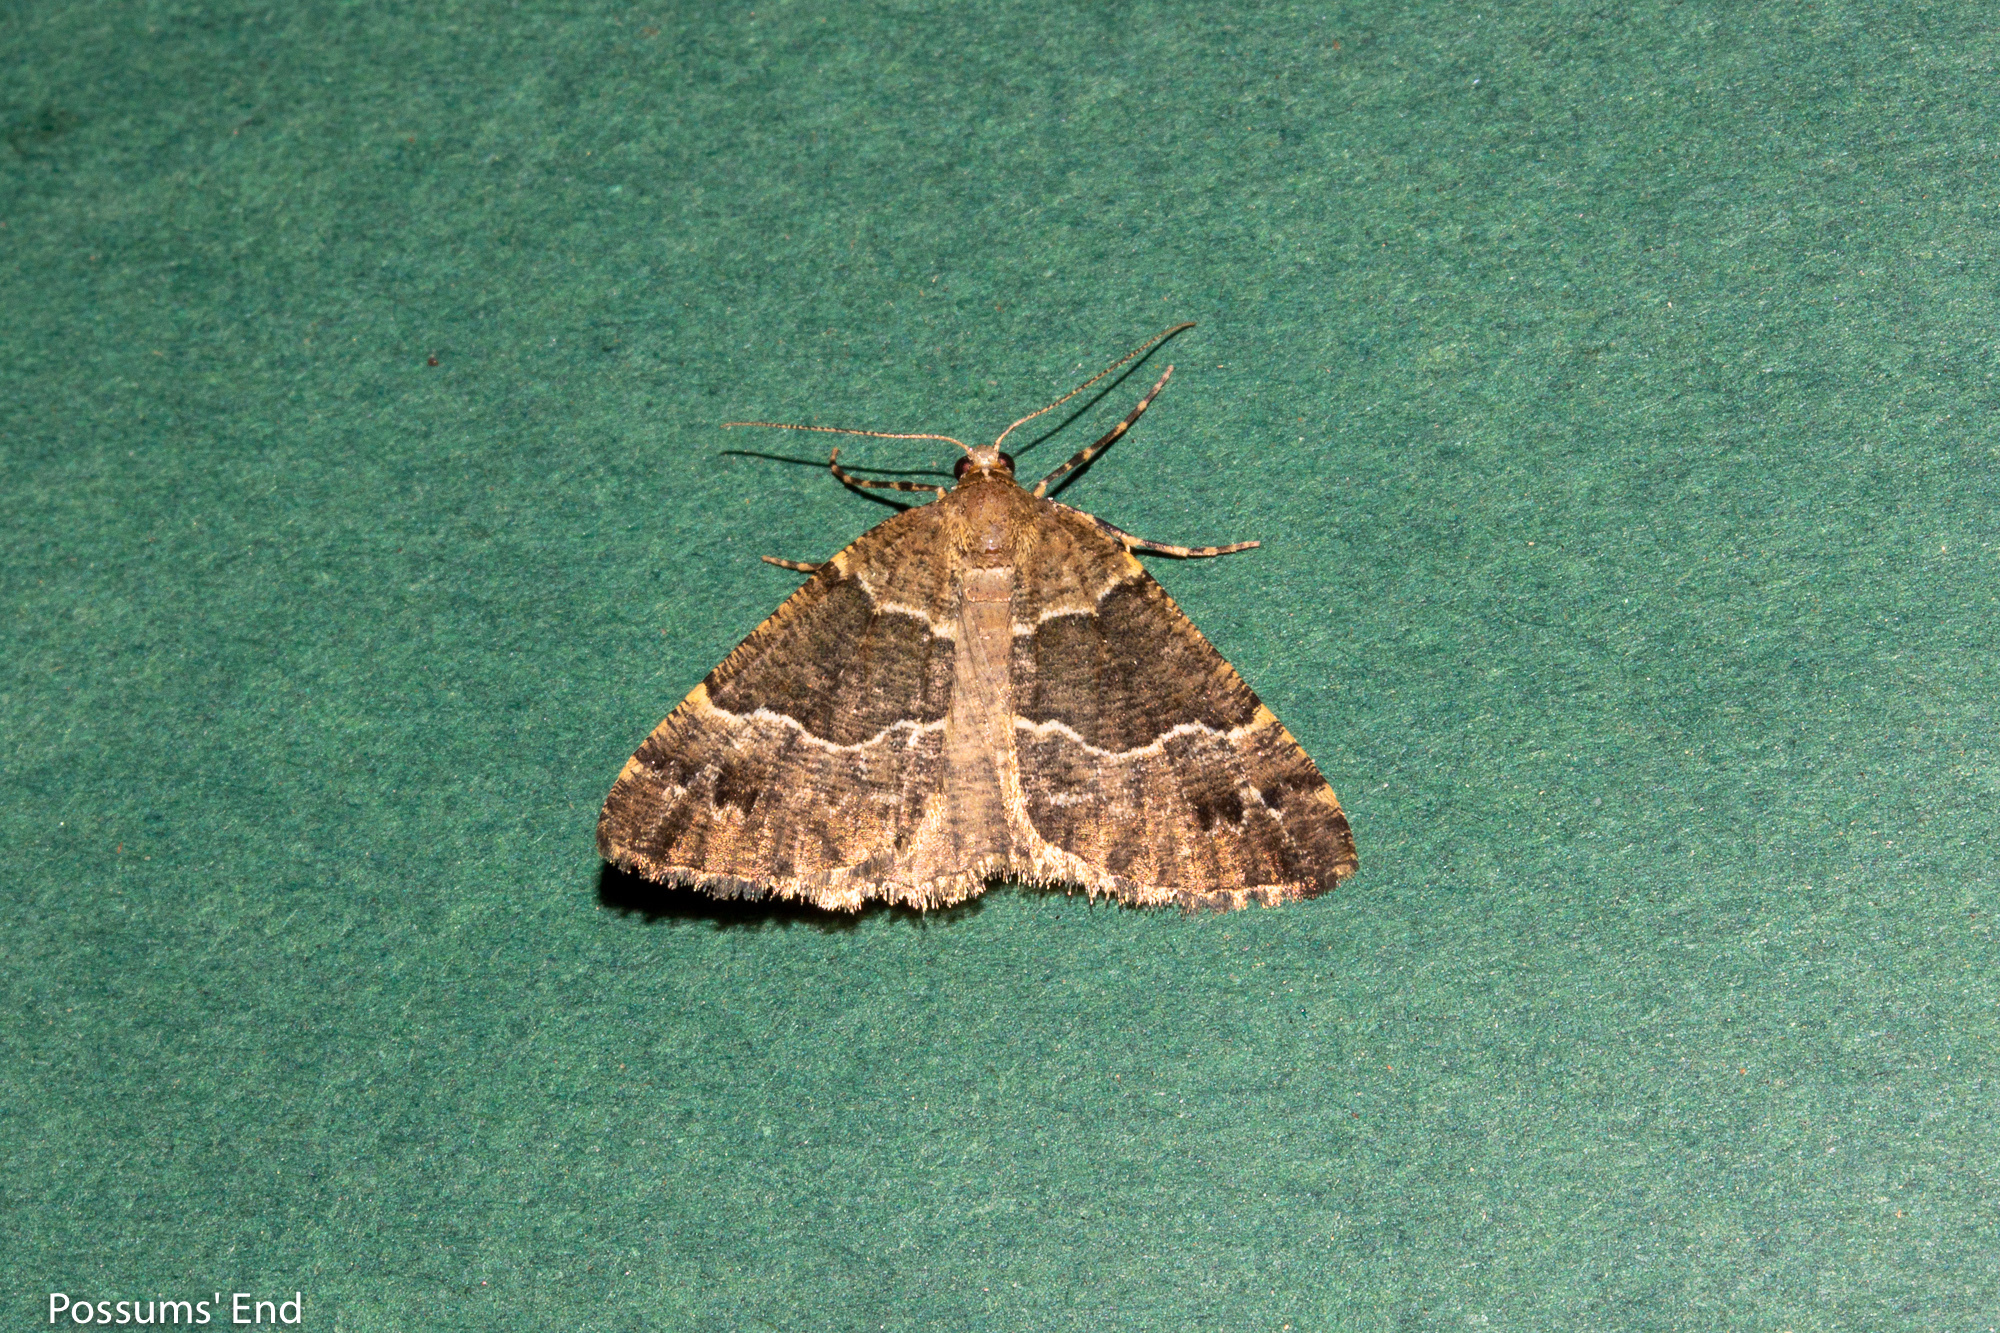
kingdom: Animalia
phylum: Arthropoda
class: Insecta
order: Lepidoptera
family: Geometridae
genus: Pseudocoremia
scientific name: Pseudocoremia
